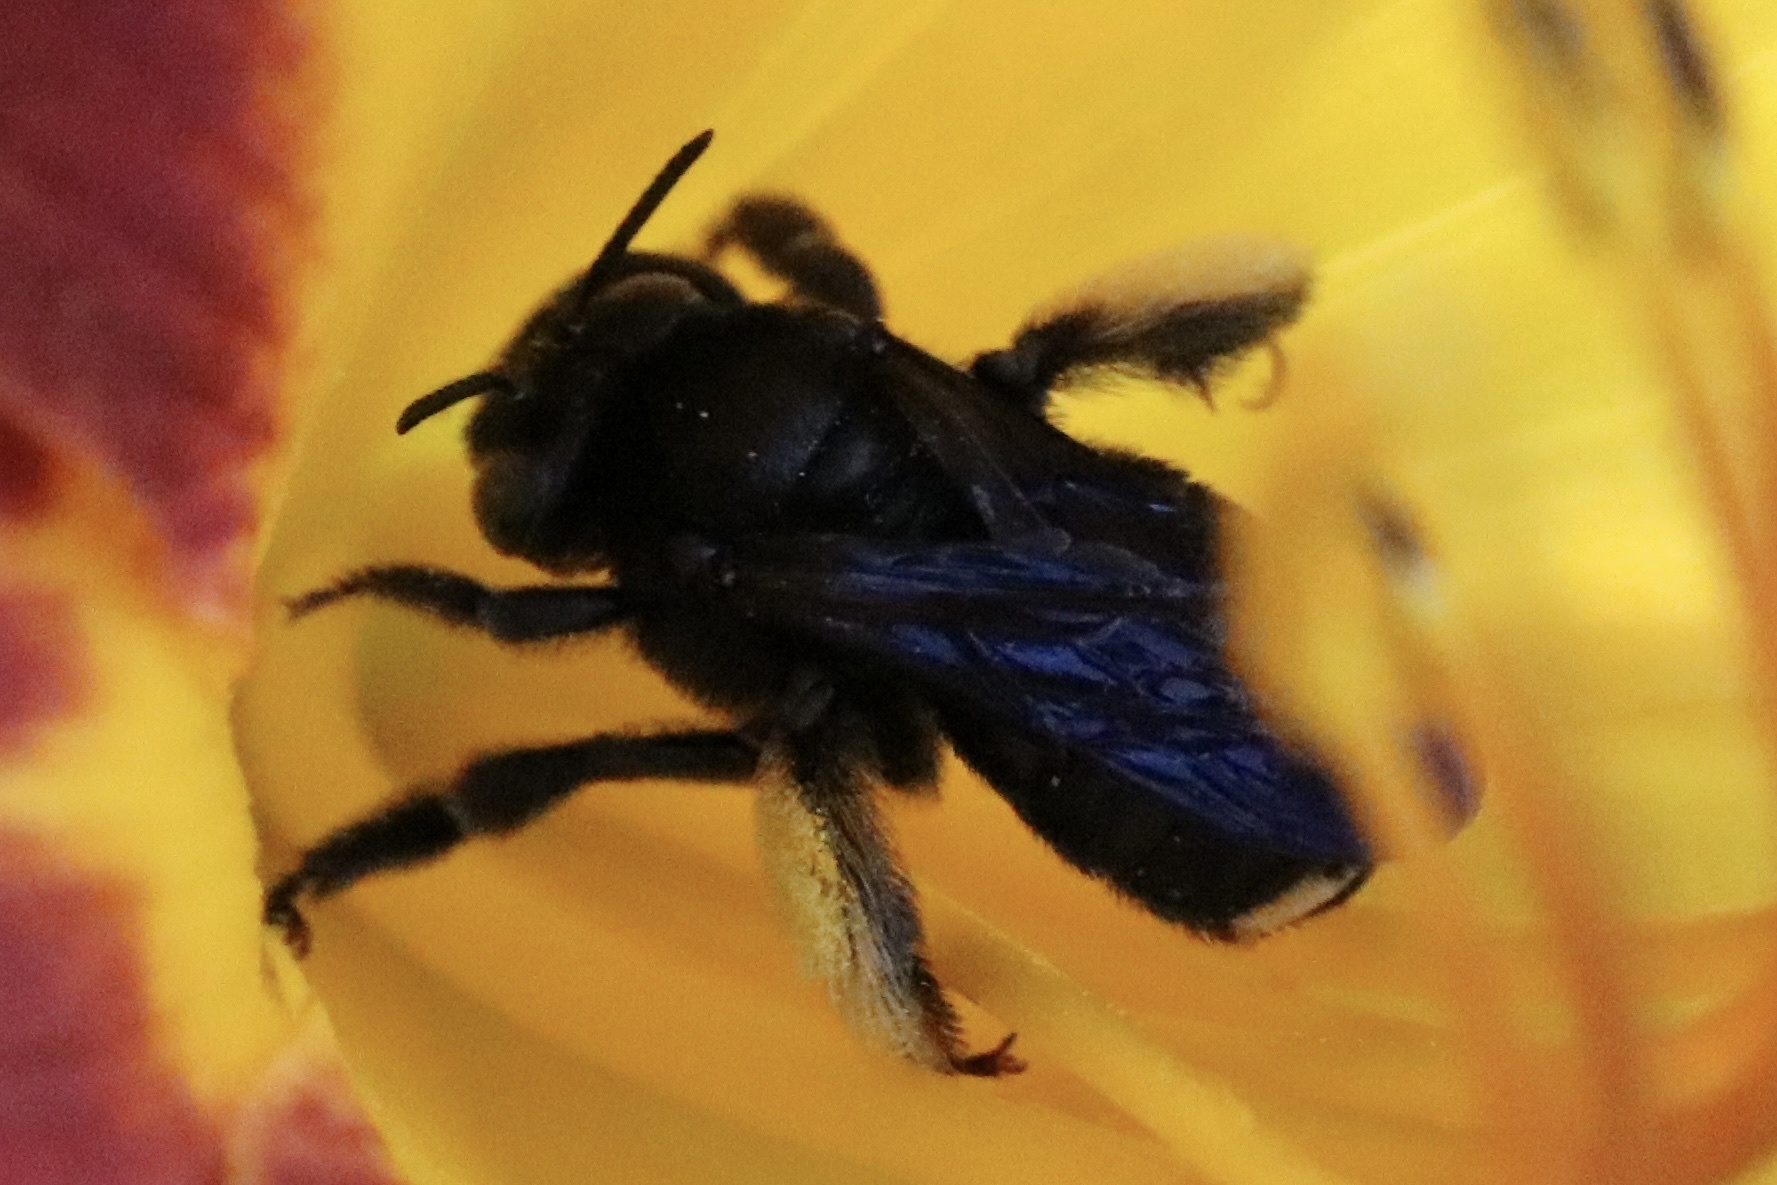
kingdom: Animalia
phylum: Arthropoda
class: Insecta
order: Hymenoptera
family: Apidae
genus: Melissodes
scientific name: Melissodes bimaculatus
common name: Two-spotted long-horned bee
